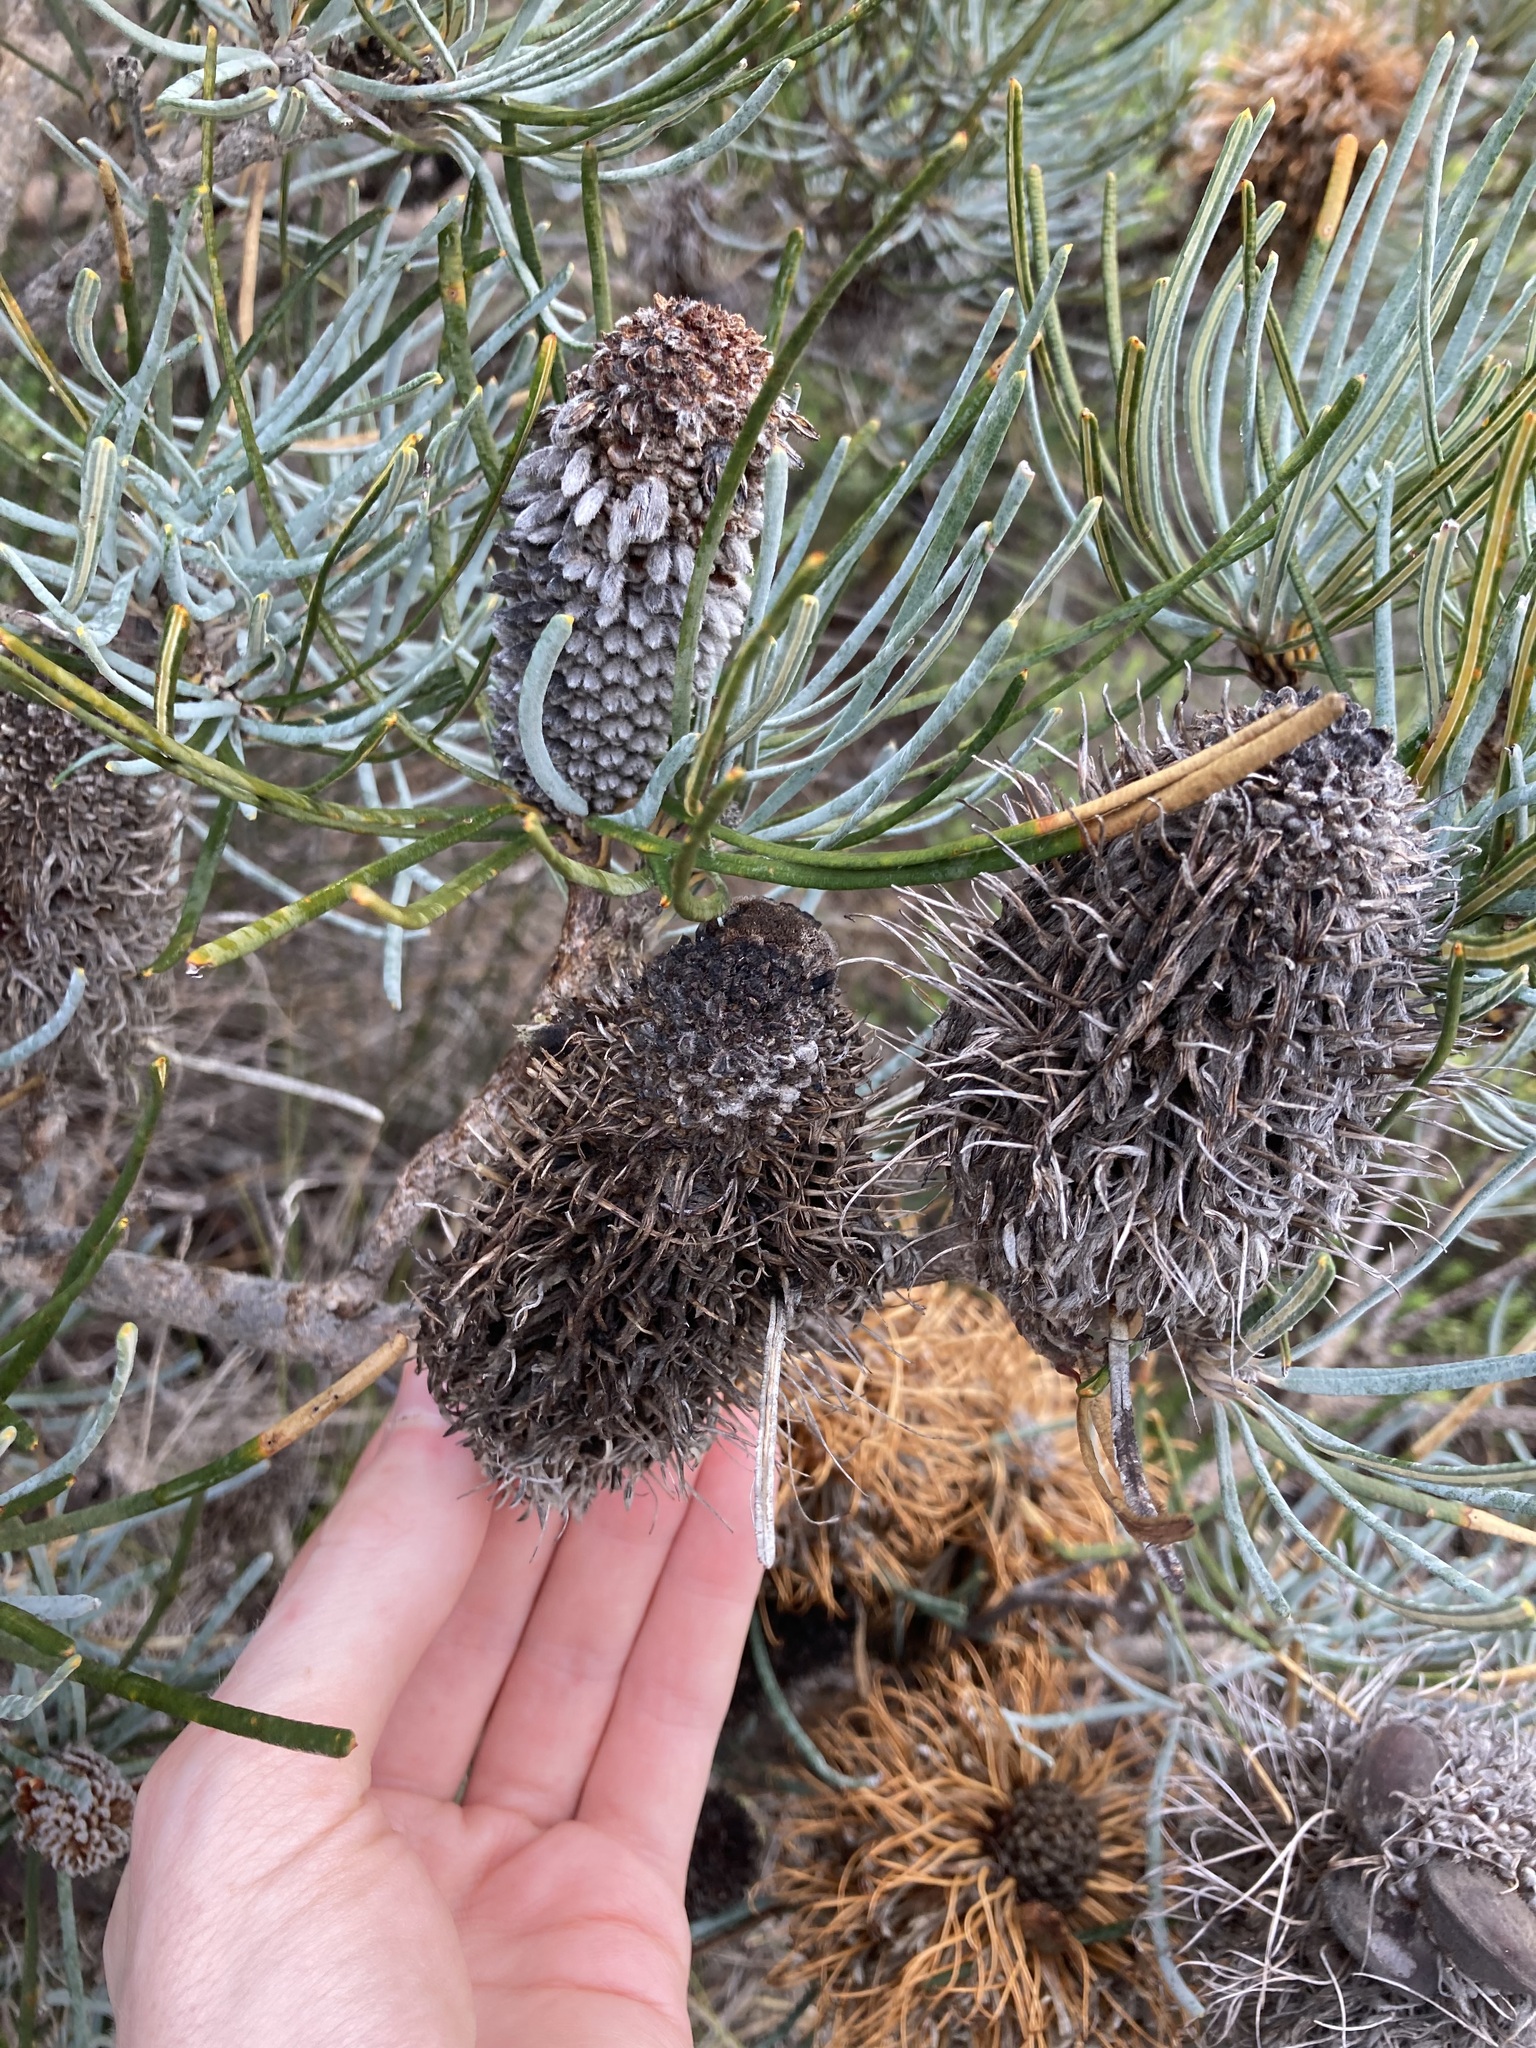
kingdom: Plantae
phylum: Tracheophyta
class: Magnoliopsida
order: Proteales
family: Proteaceae
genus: Banksia
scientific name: Banksia sphaerocarpa
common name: Fox banksia
